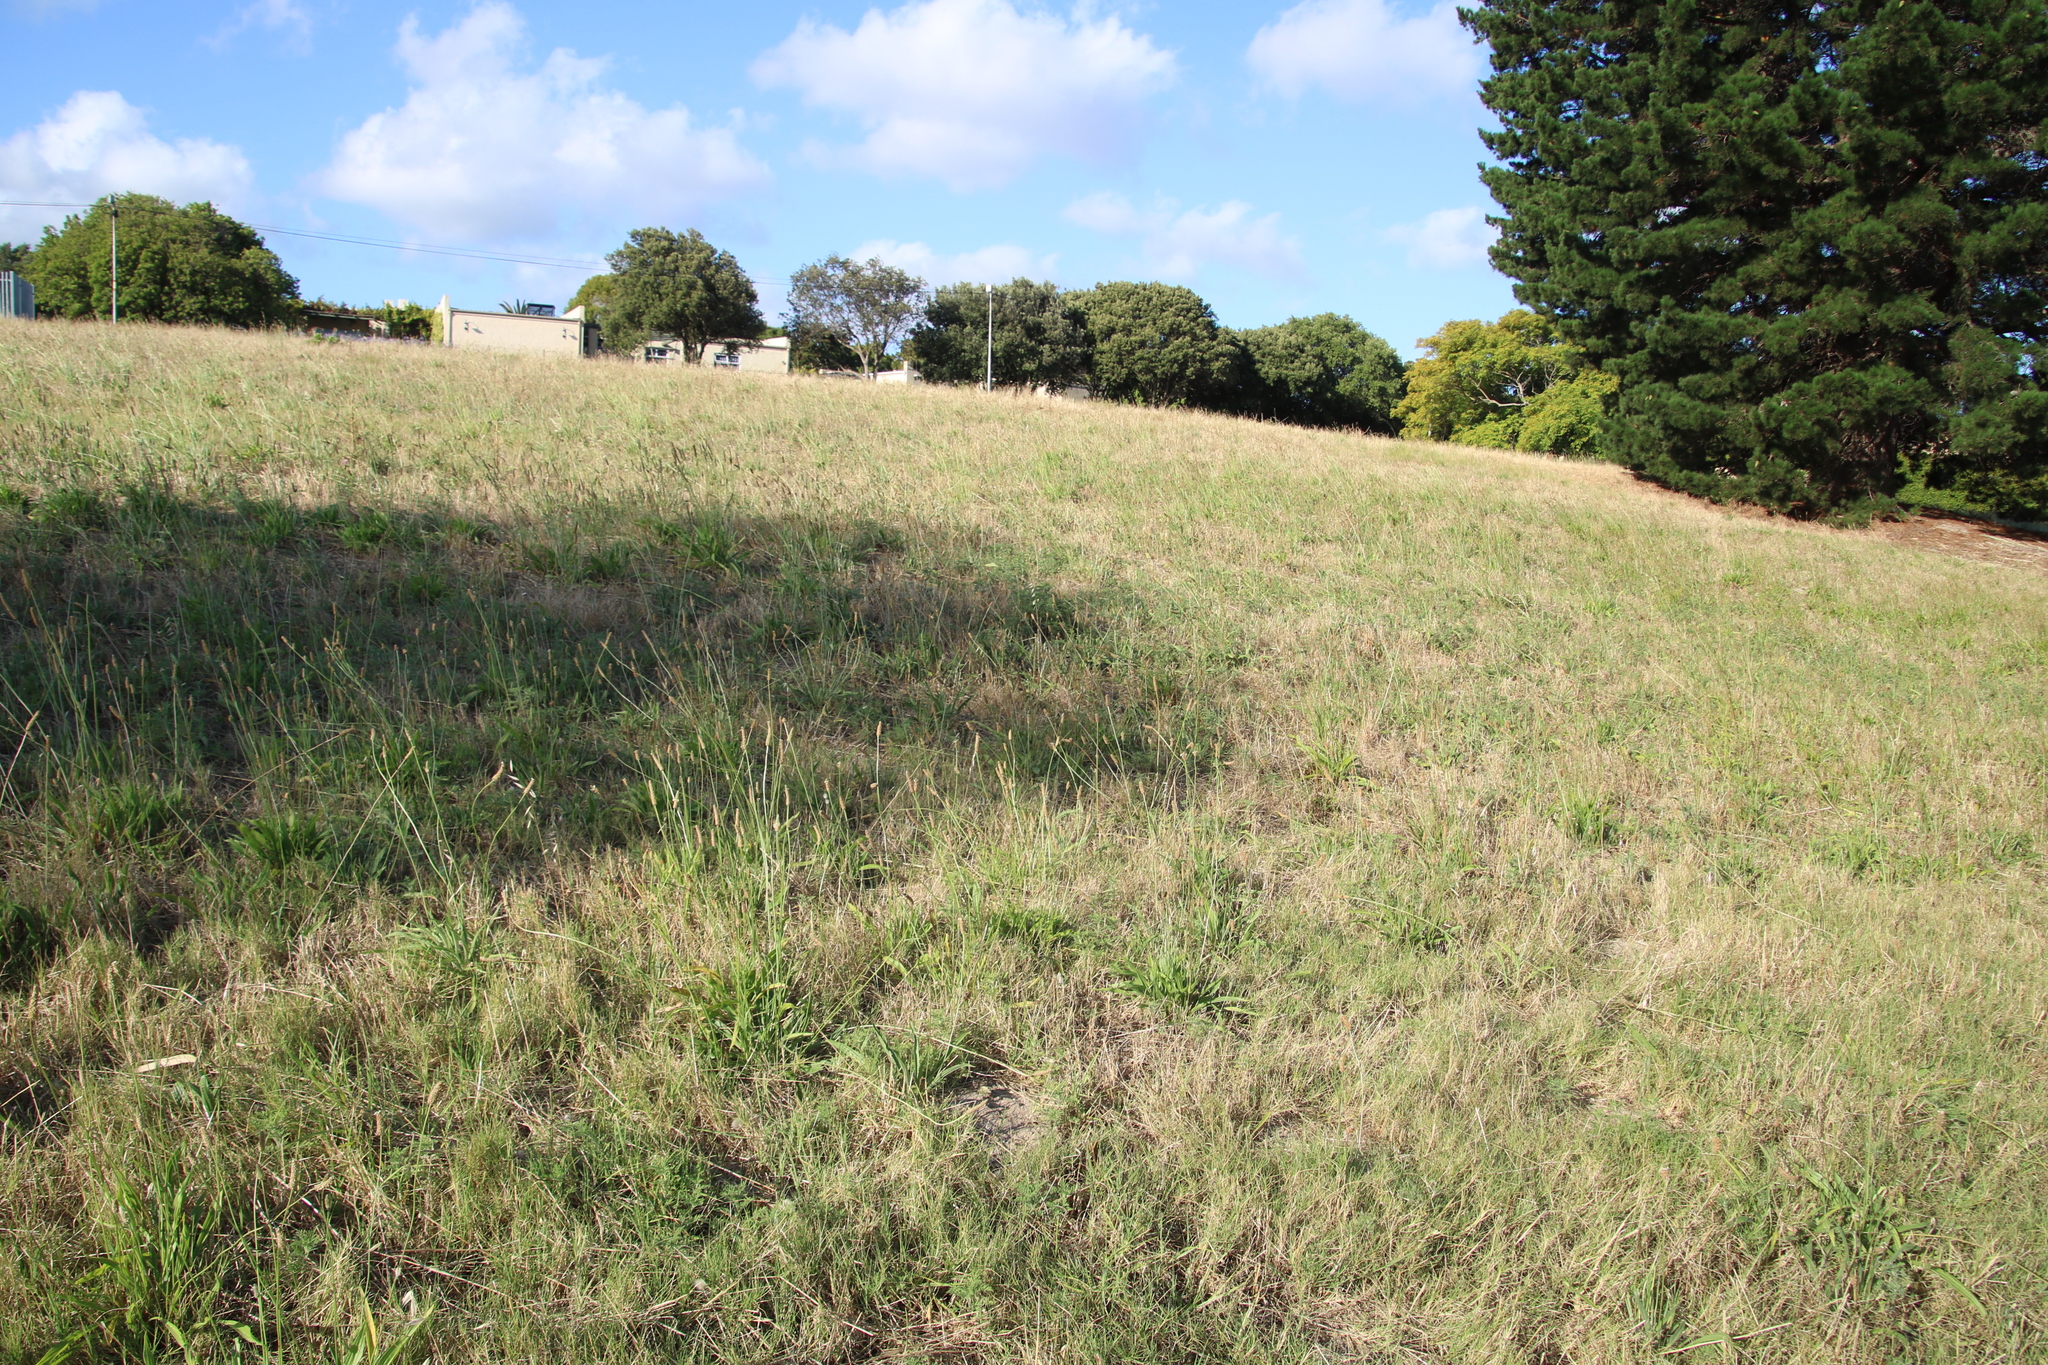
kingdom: Plantae
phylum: Tracheophyta
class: Magnoliopsida
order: Lamiales
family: Plantaginaceae
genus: Plantago
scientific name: Plantago lanceolata
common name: Ribwort plantain
